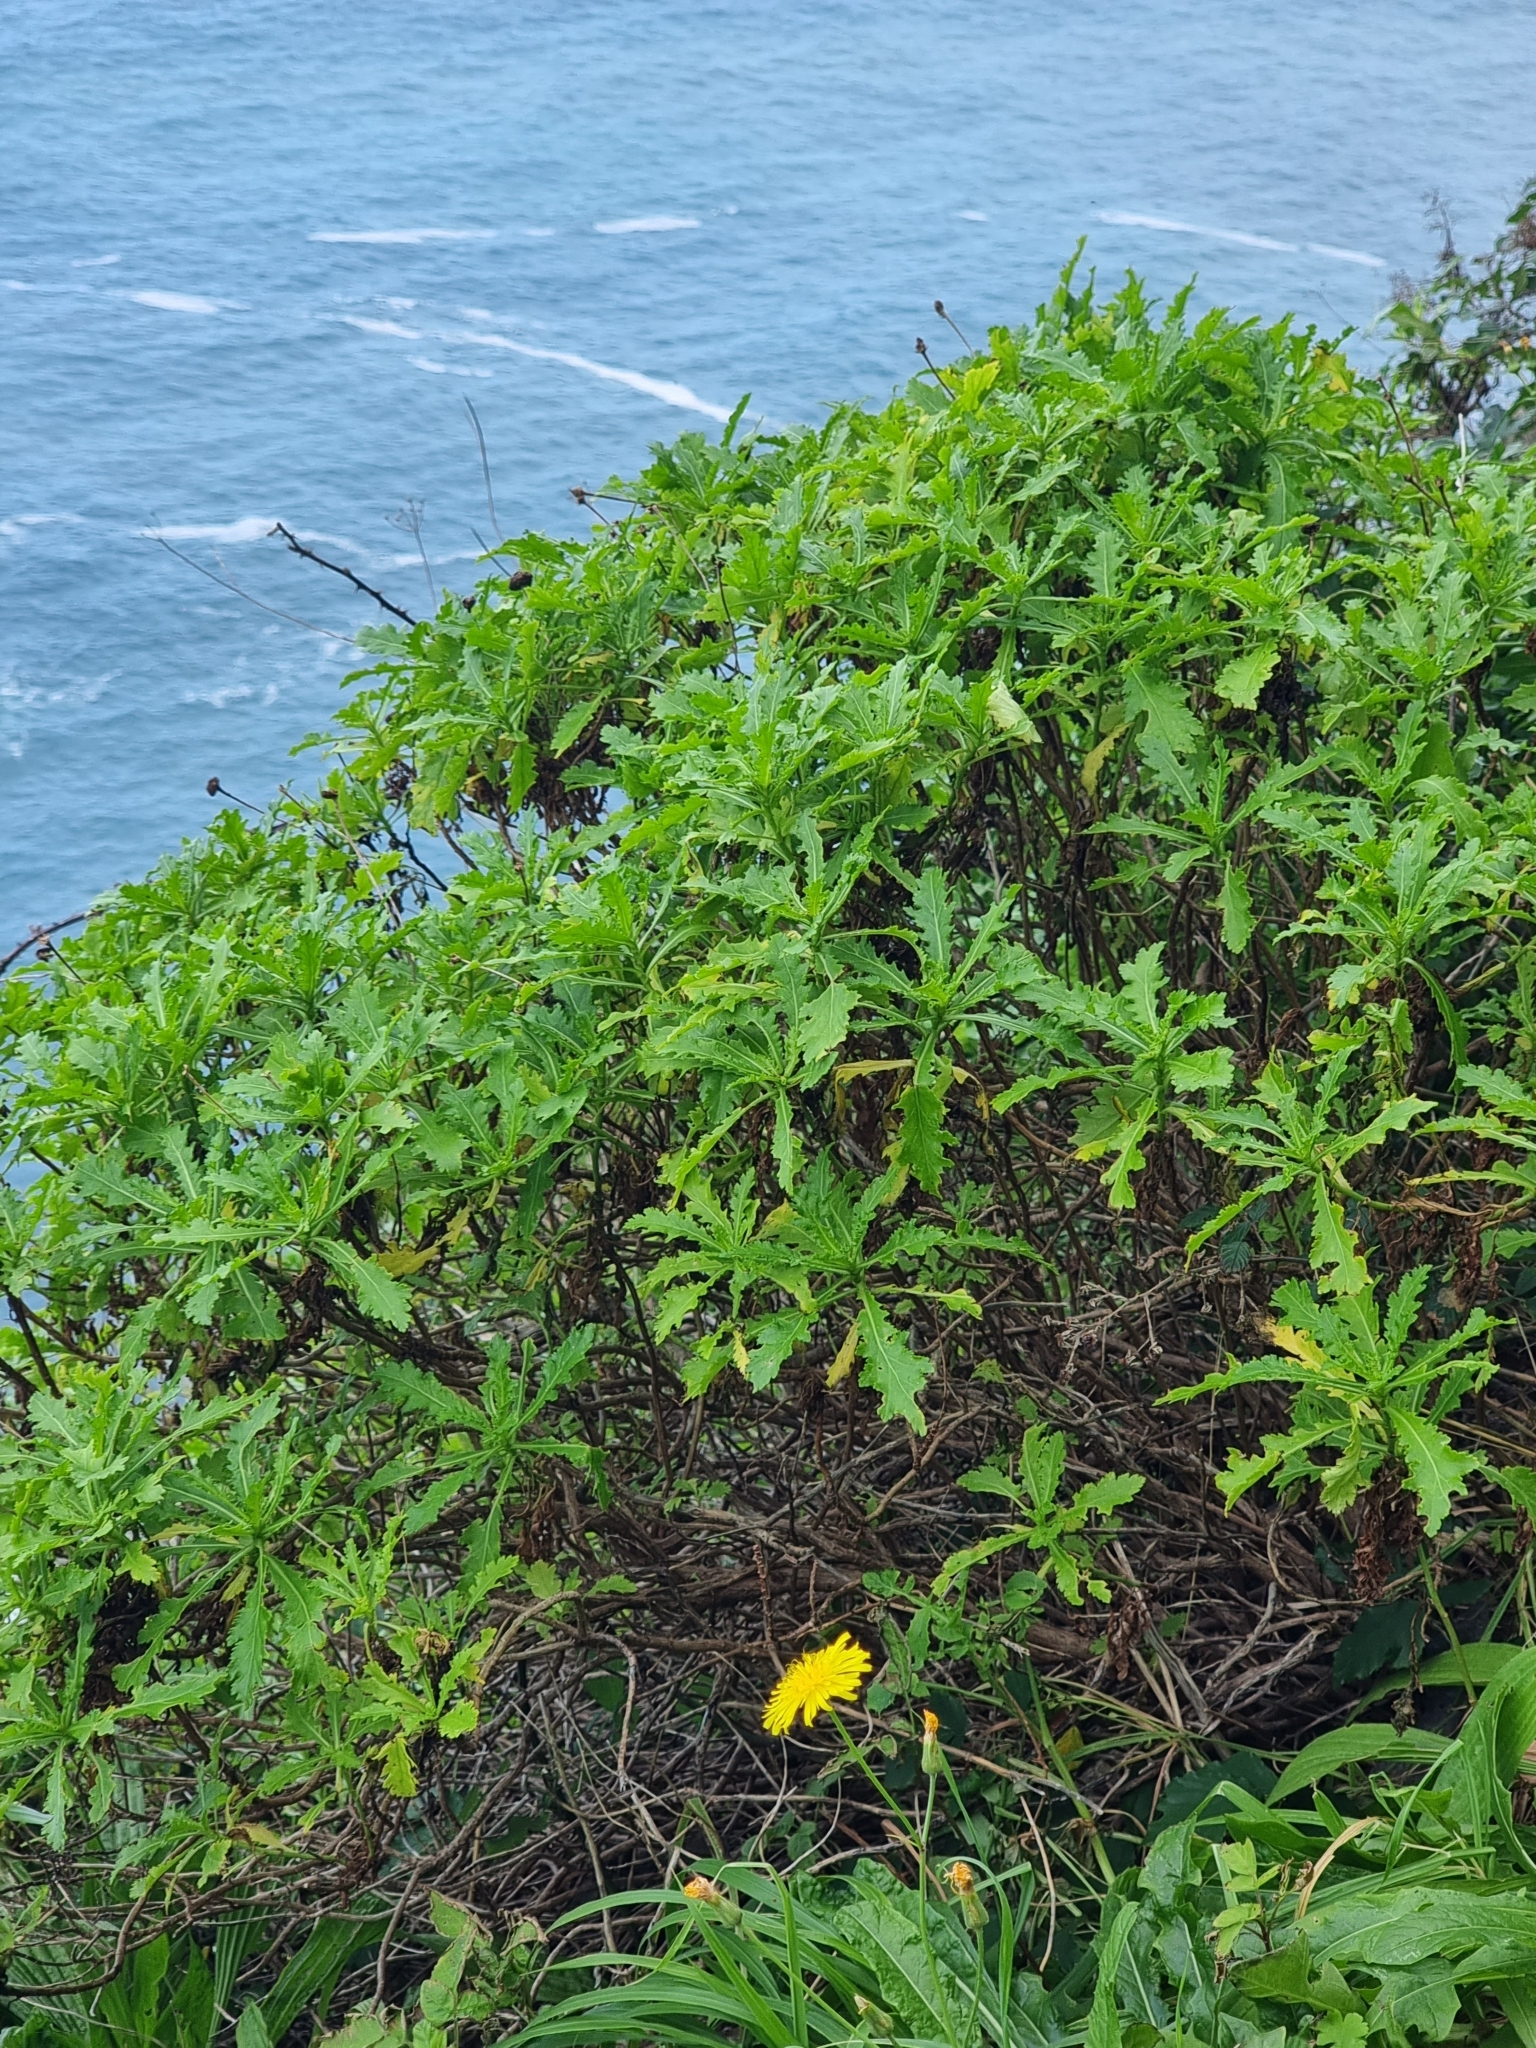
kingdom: Plantae
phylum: Tracheophyta
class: Magnoliopsida
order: Asterales
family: Asteraceae
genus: Argyranthemum
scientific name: Argyranthemum pinnatifidum
